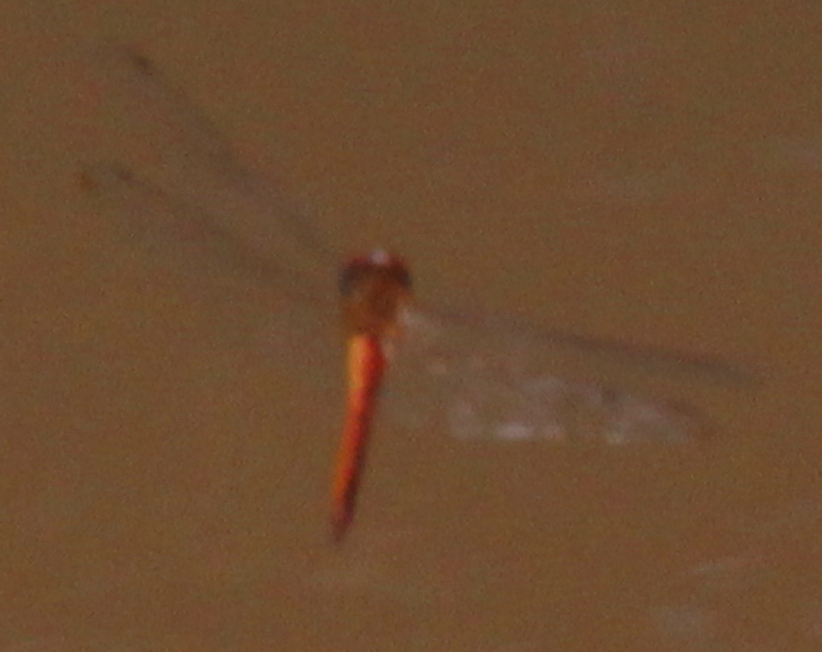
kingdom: Animalia
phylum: Arthropoda
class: Insecta
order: Odonata
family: Libellulidae
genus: Pantala
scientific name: Pantala flavescens
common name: Wandering glider
